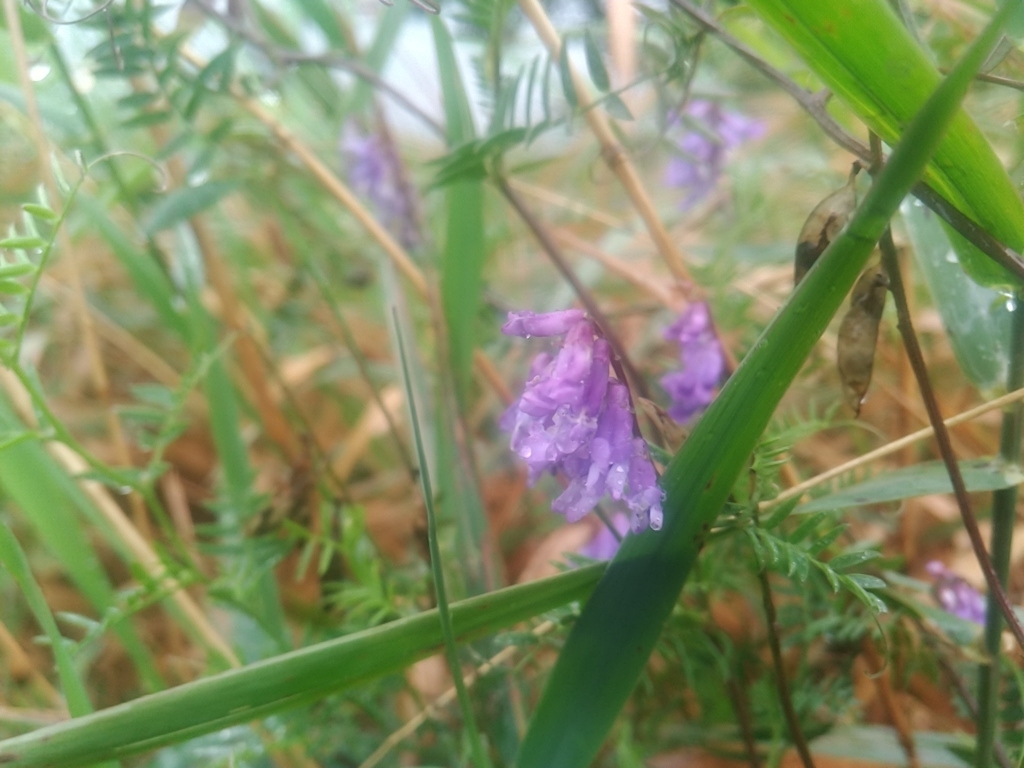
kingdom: Plantae
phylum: Tracheophyta
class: Magnoliopsida
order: Fabales
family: Fabaceae
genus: Vicia
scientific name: Vicia cracca
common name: Bird vetch
